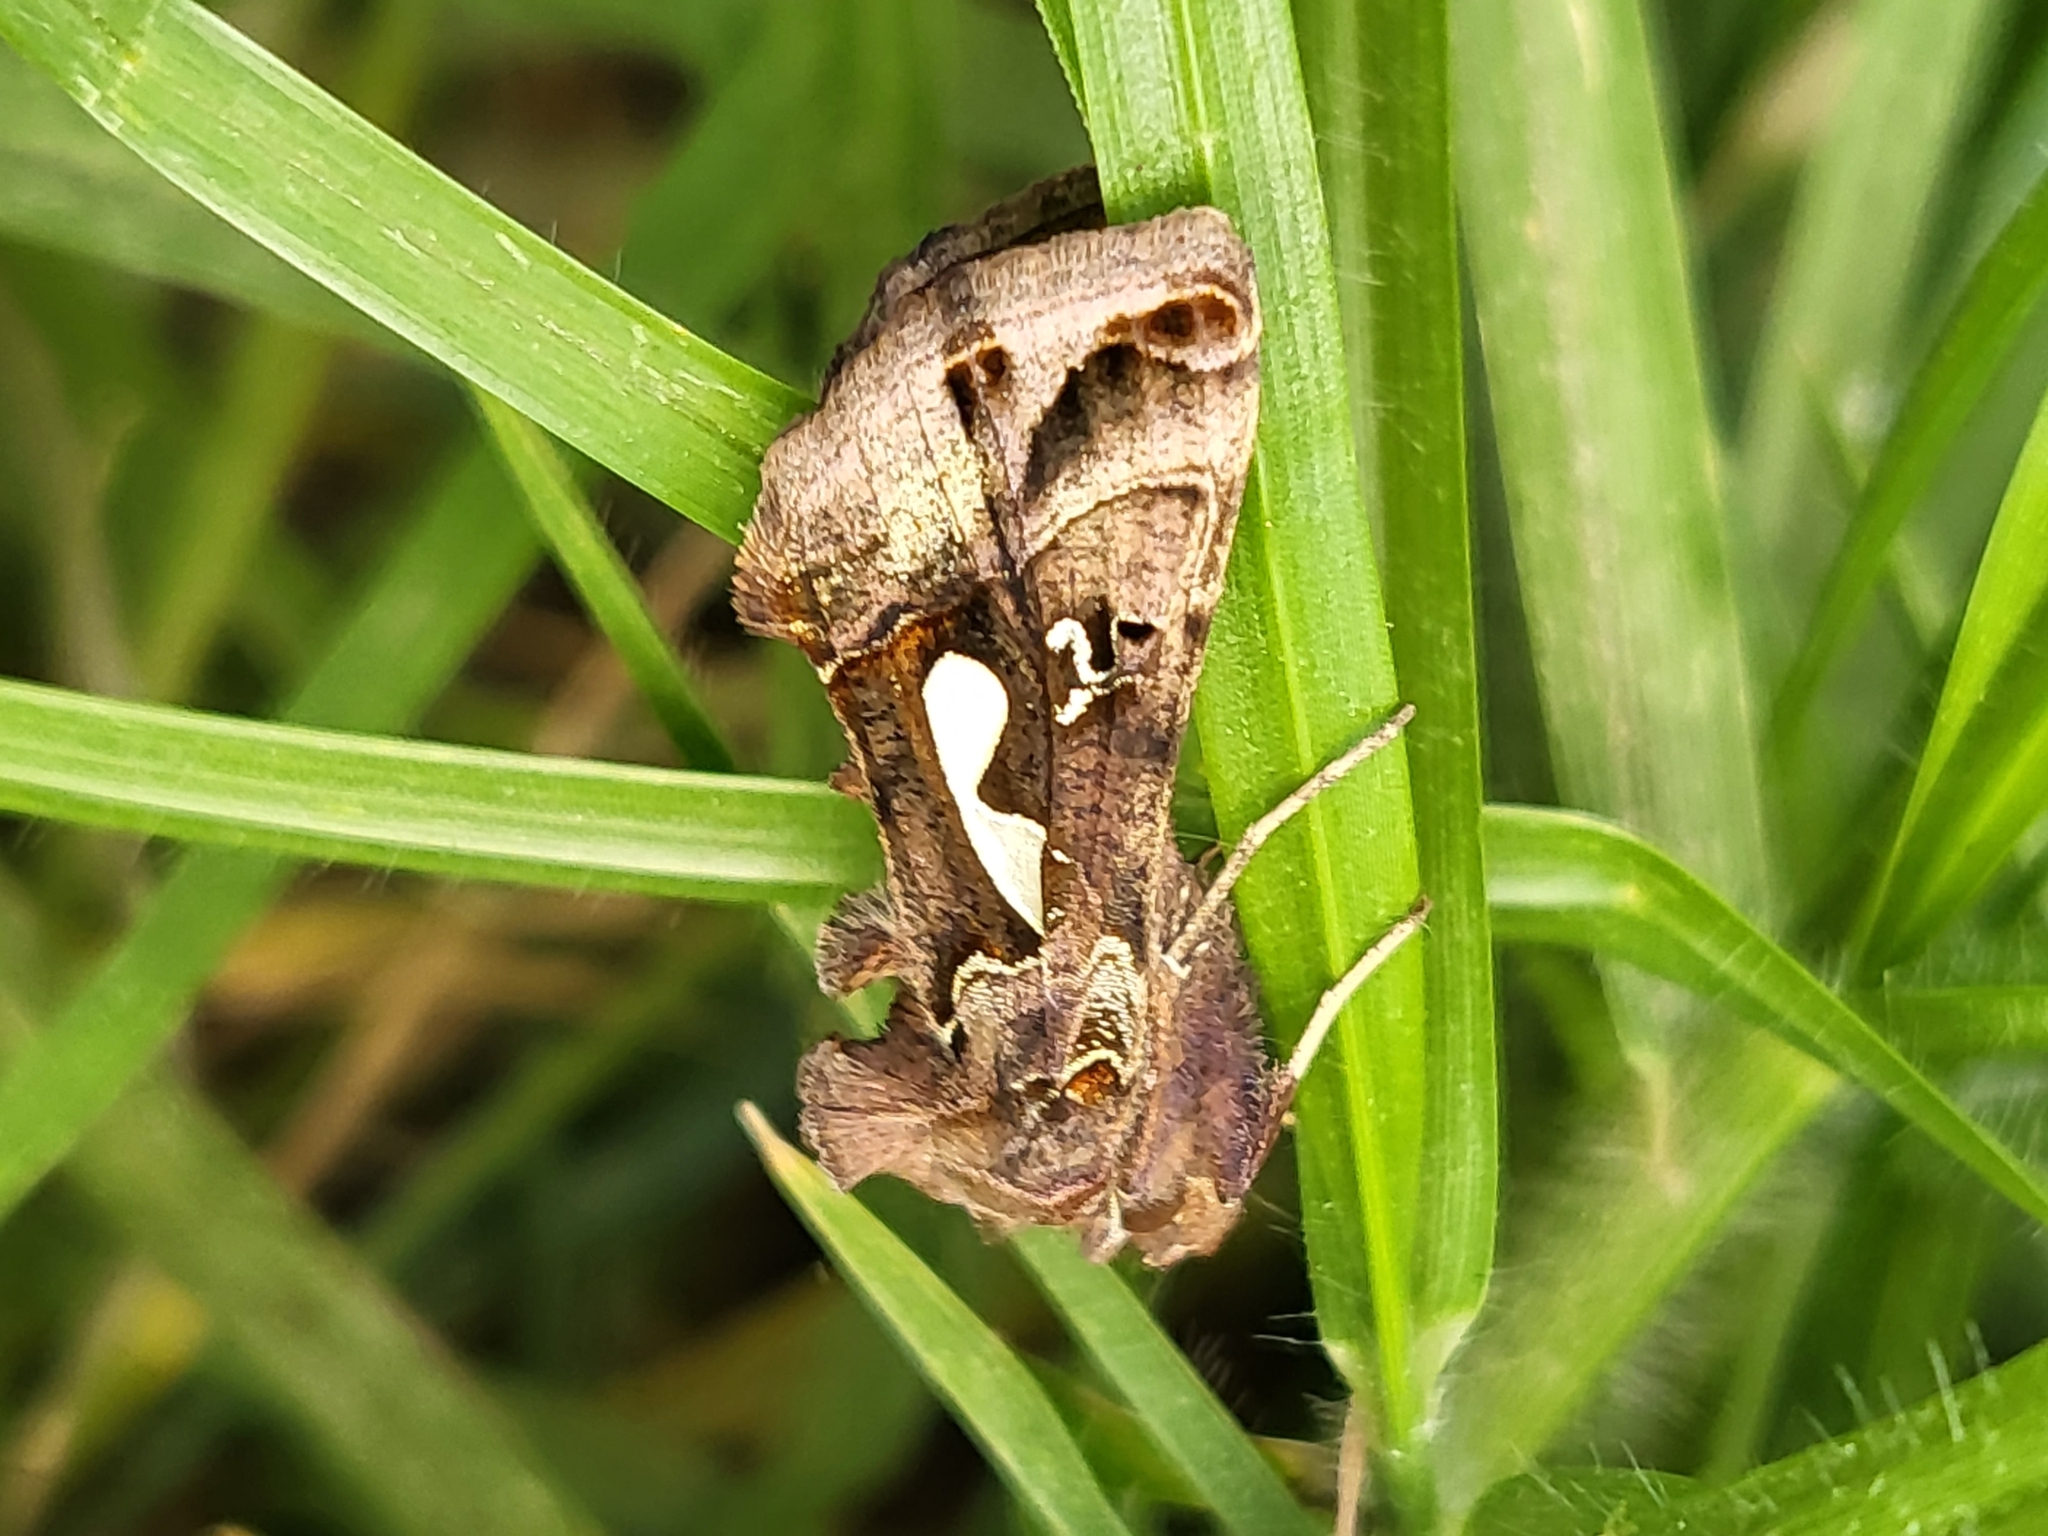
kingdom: Animalia
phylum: Arthropoda
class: Insecta
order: Lepidoptera
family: Noctuidae
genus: Megalographa
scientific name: Megalographa biloba
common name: Cutworm
